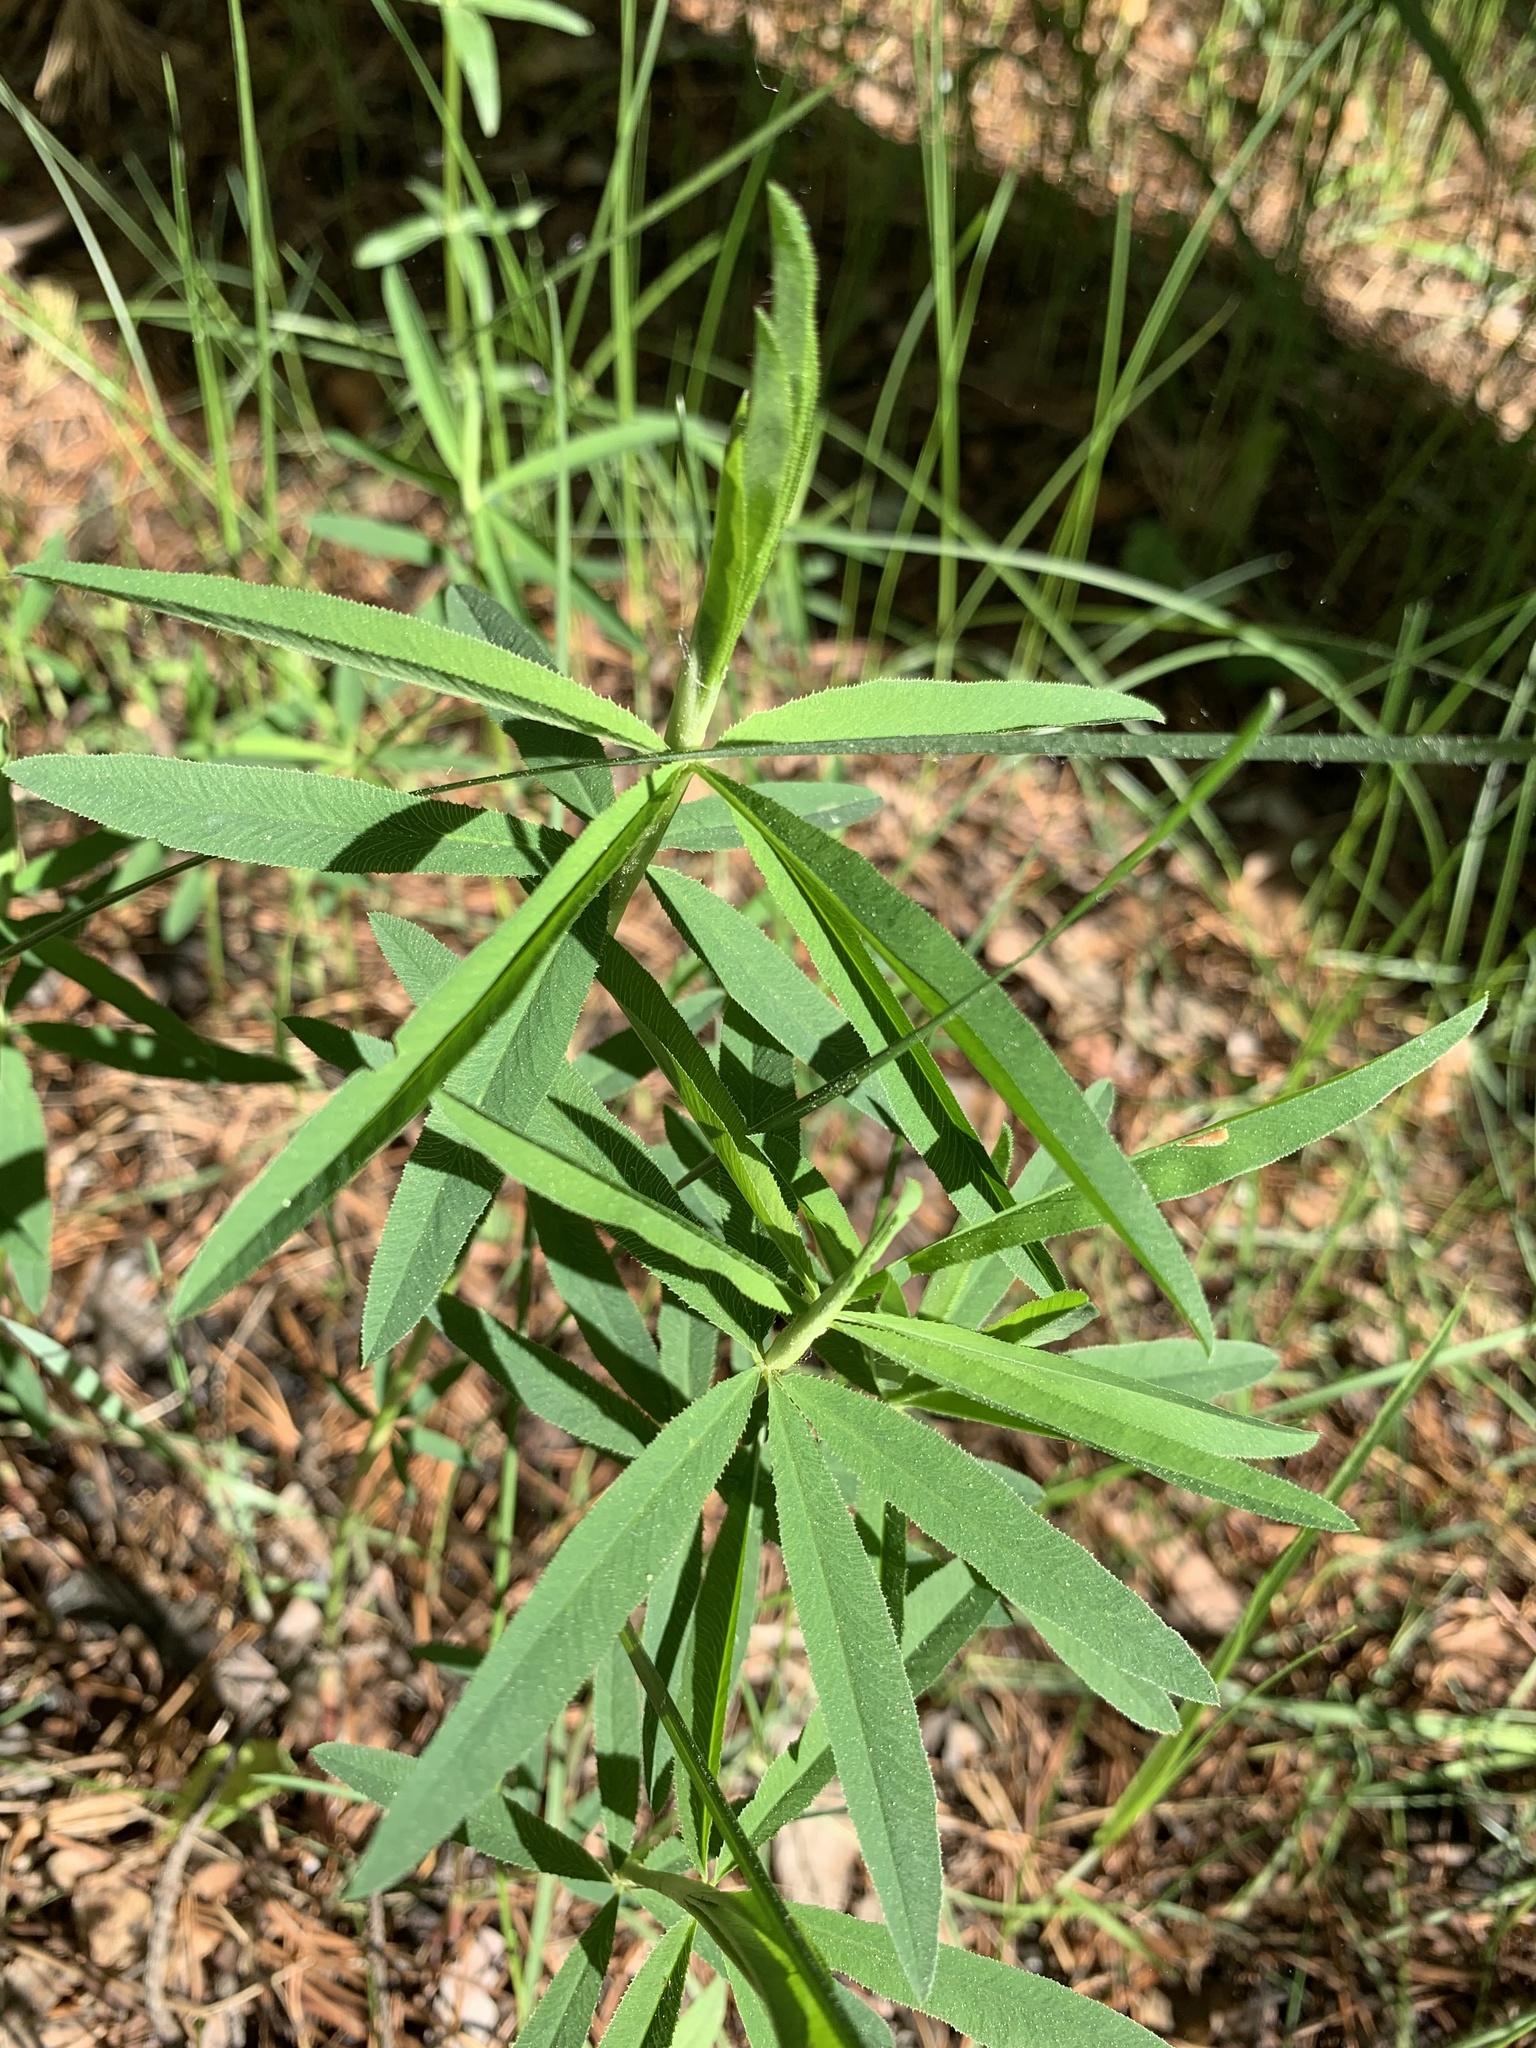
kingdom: Plantae
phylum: Tracheophyta
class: Magnoliopsida
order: Fabales
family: Fabaceae
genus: Trifolium
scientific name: Trifolium lupinaster
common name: Lupine clover
